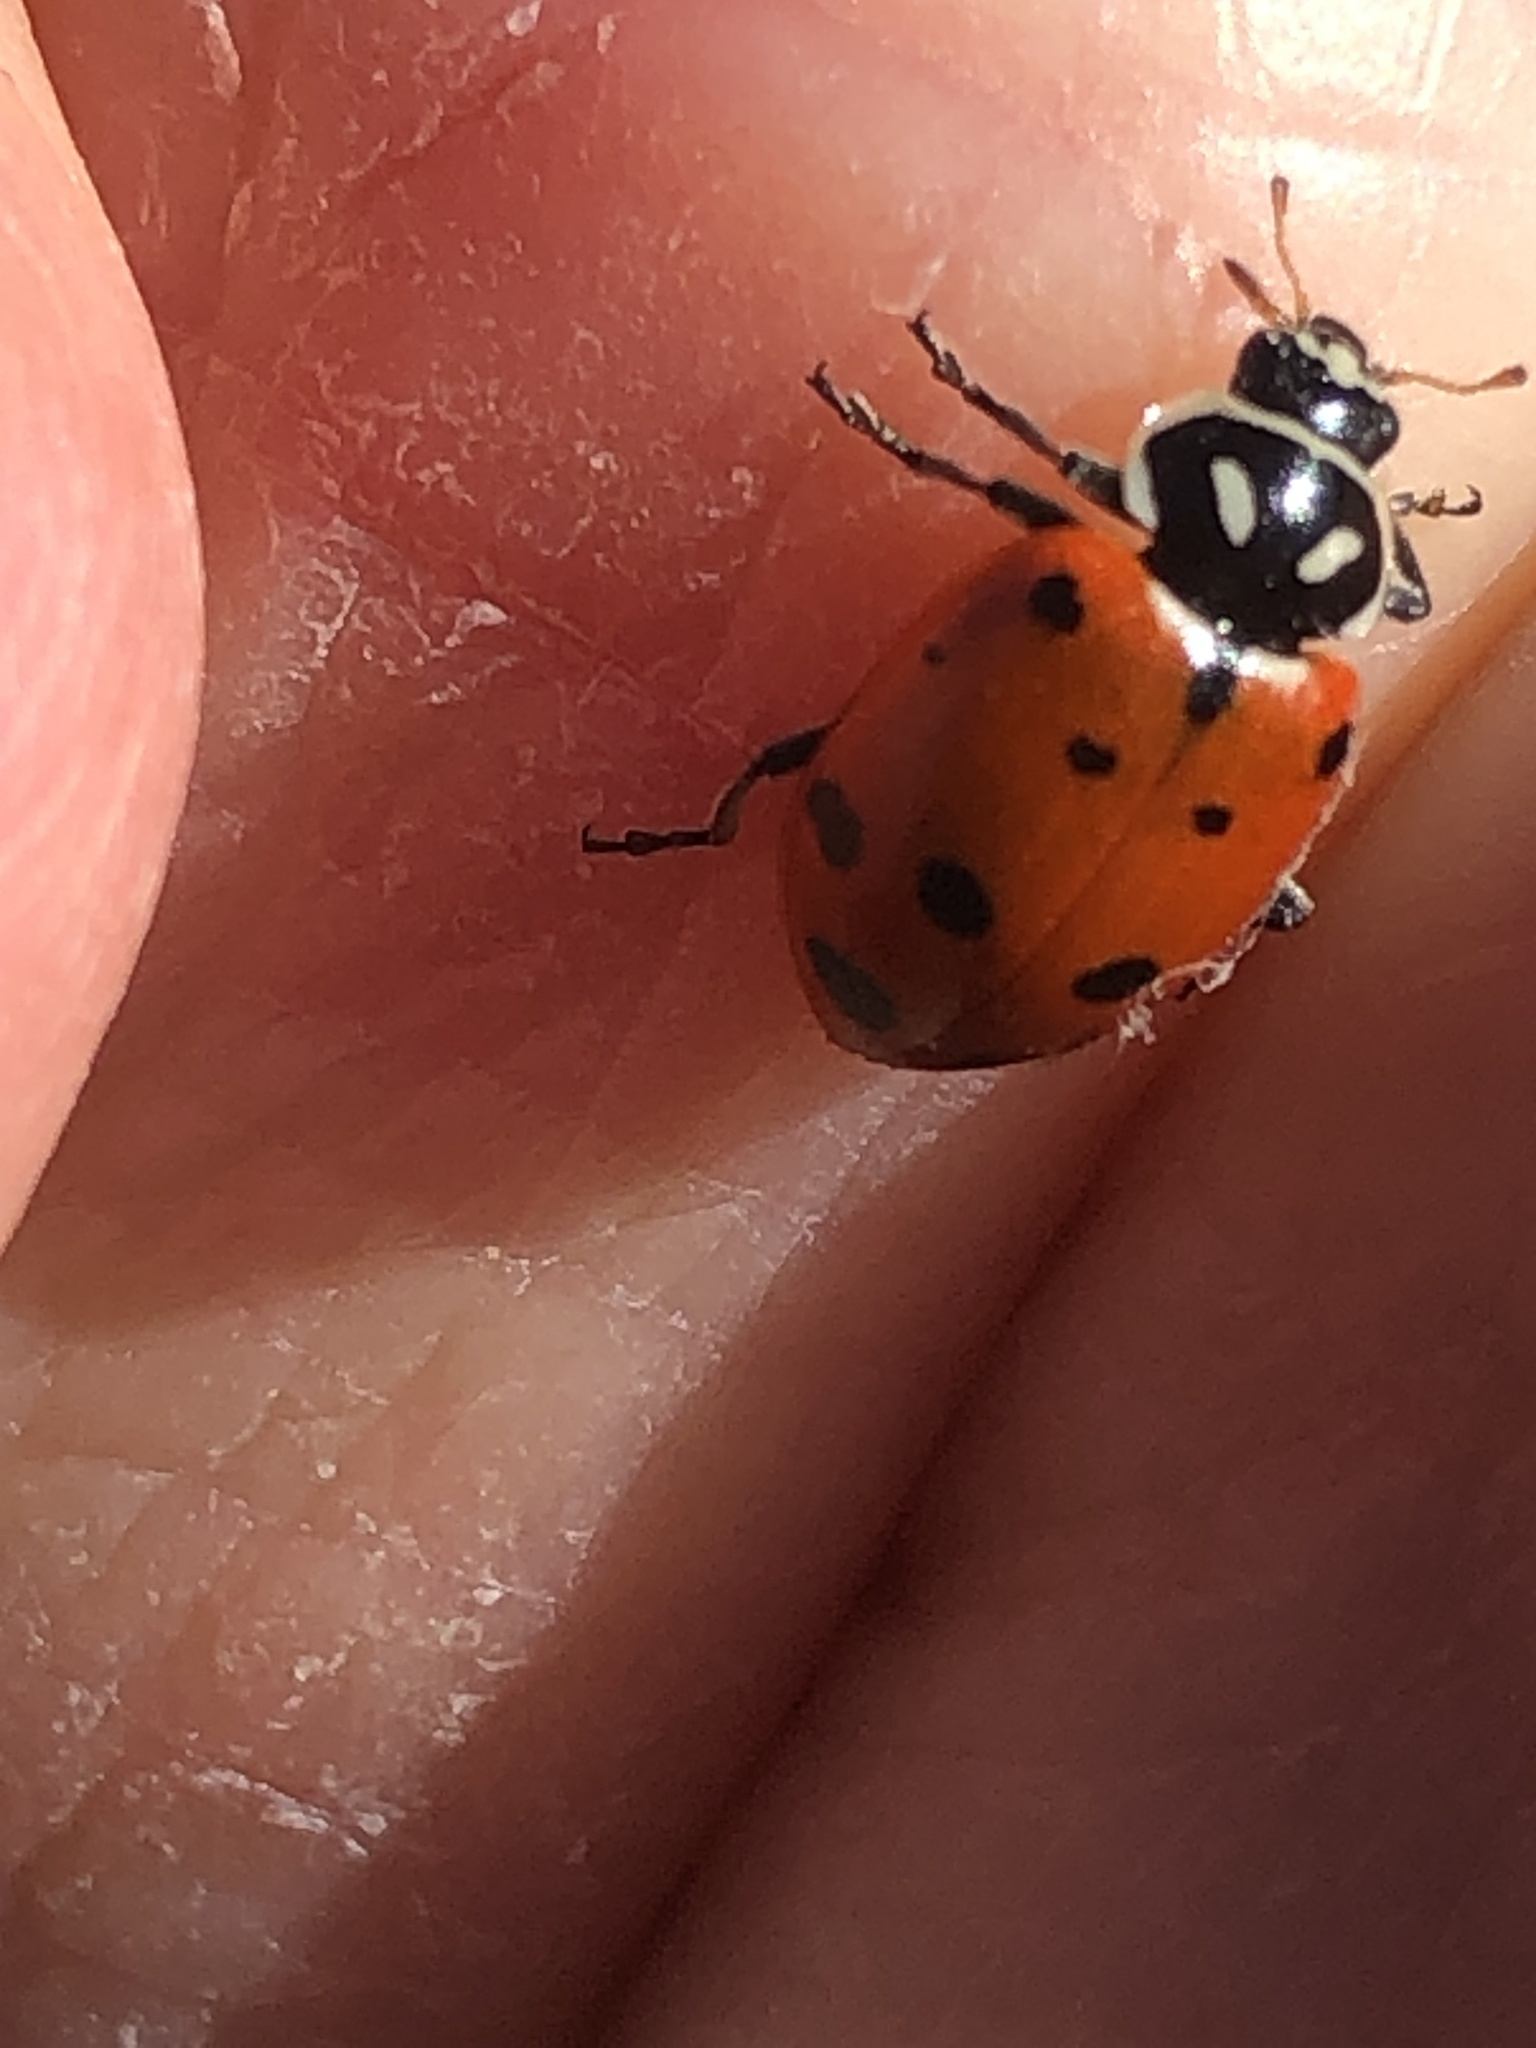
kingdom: Animalia
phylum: Arthropoda
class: Insecta
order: Coleoptera
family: Coccinellidae
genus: Hippodamia
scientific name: Hippodamia convergens
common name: Convergent lady beetle
